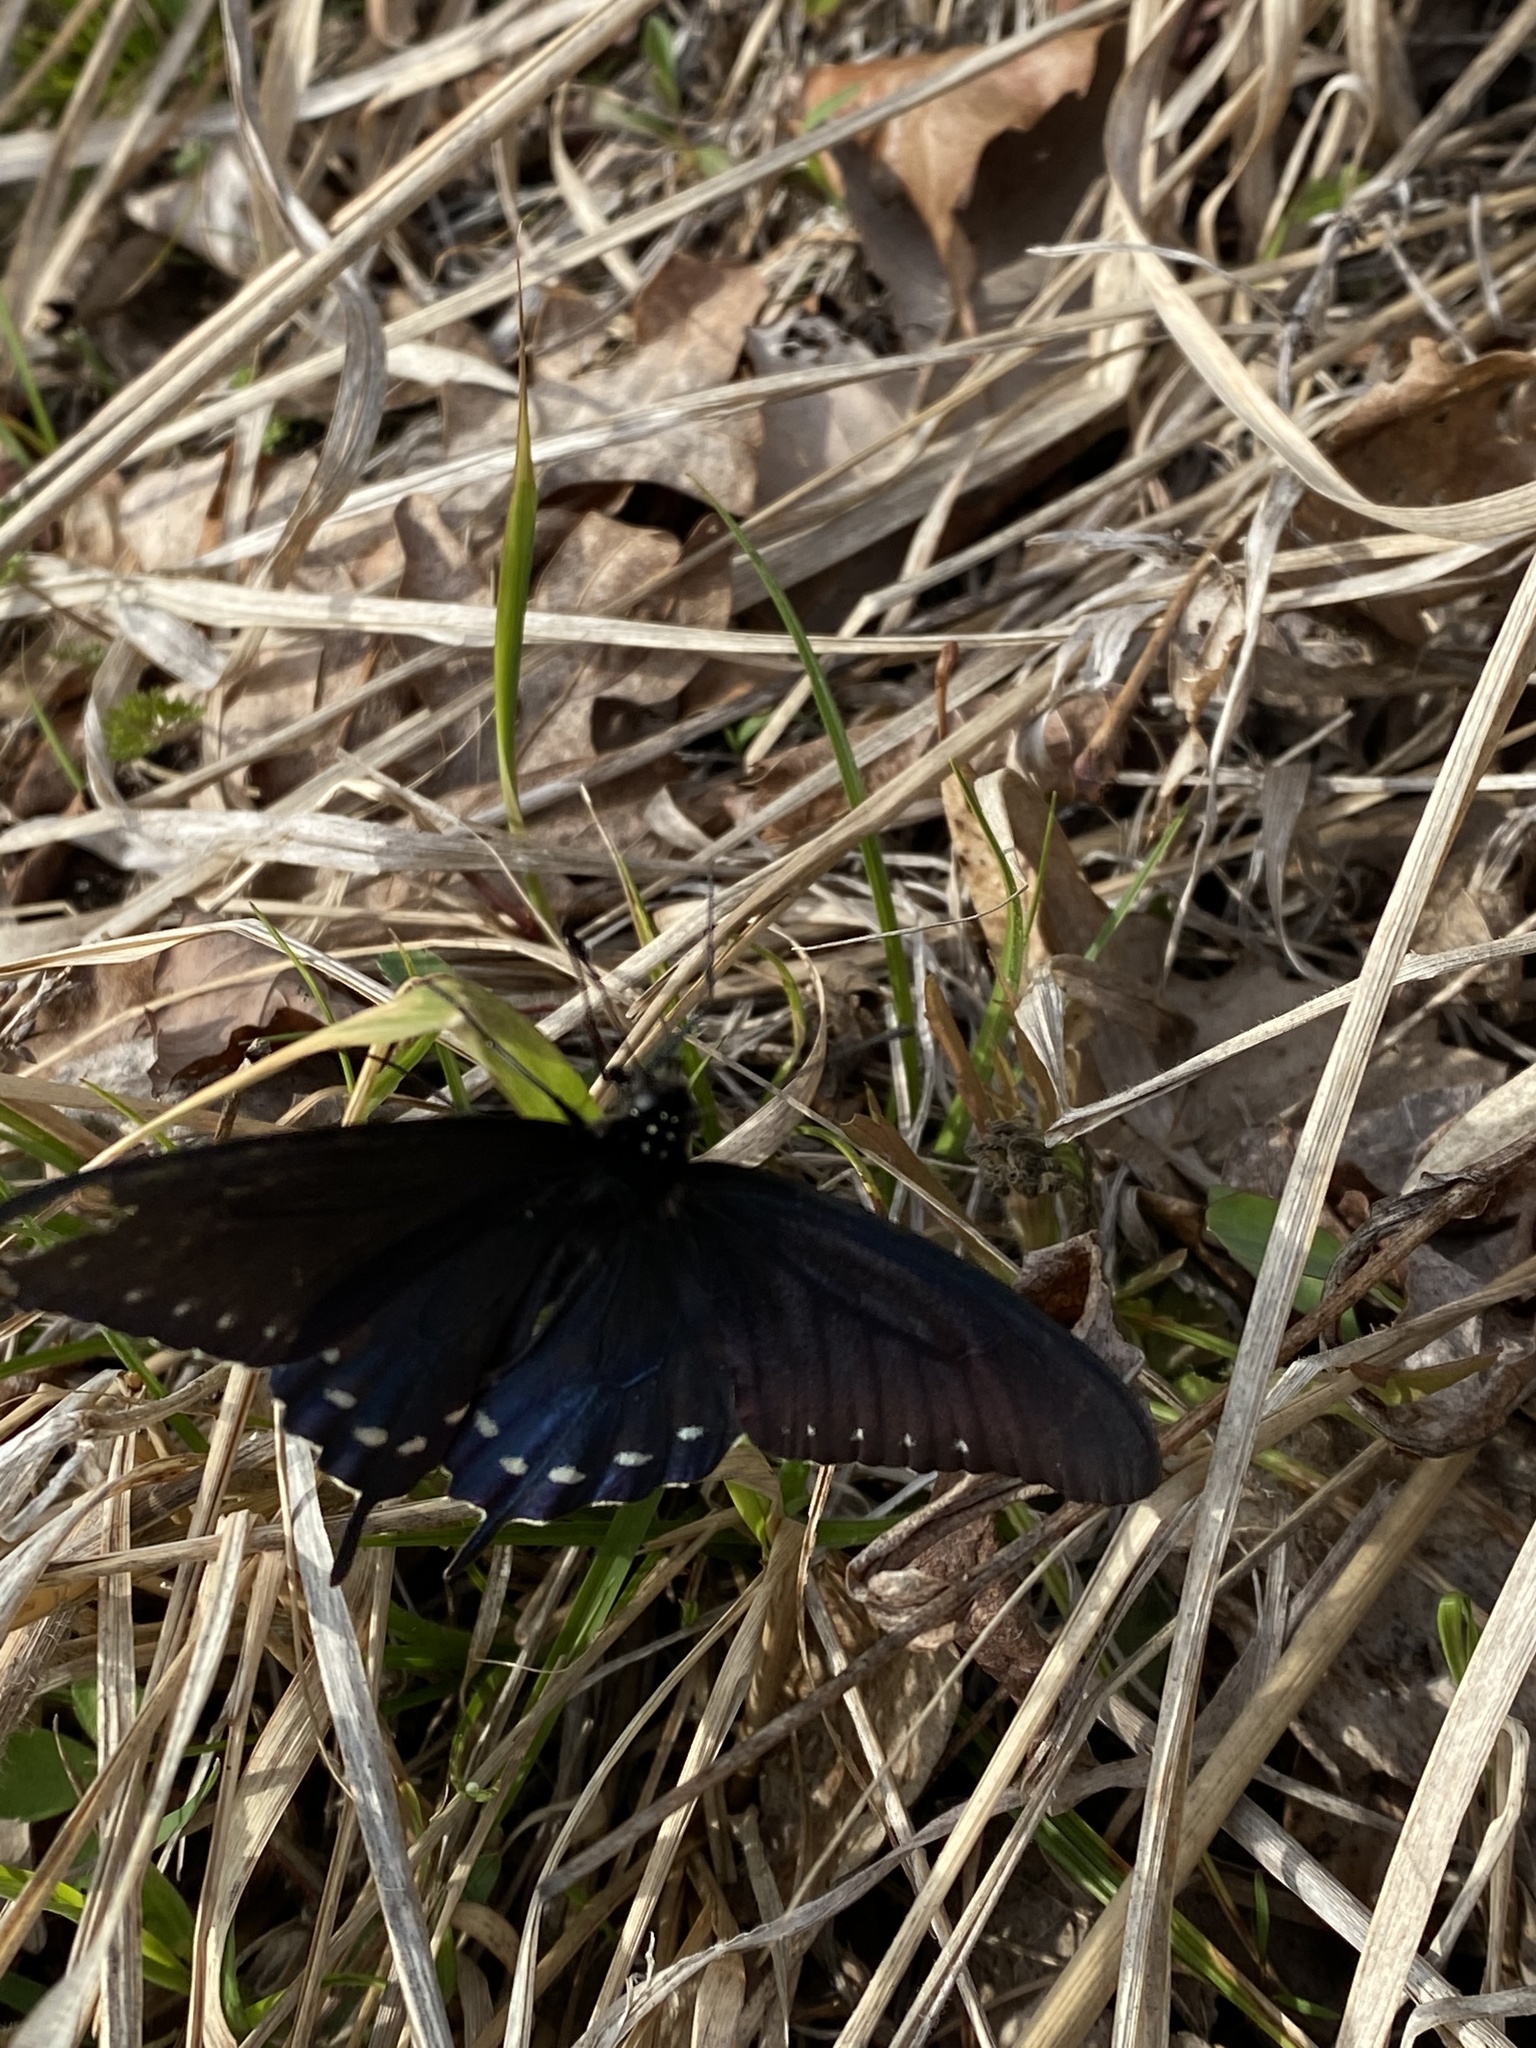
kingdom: Animalia
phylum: Arthropoda
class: Insecta
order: Lepidoptera
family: Papilionidae
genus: Battus
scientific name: Battus philenor
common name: Pipevine swallowtail
